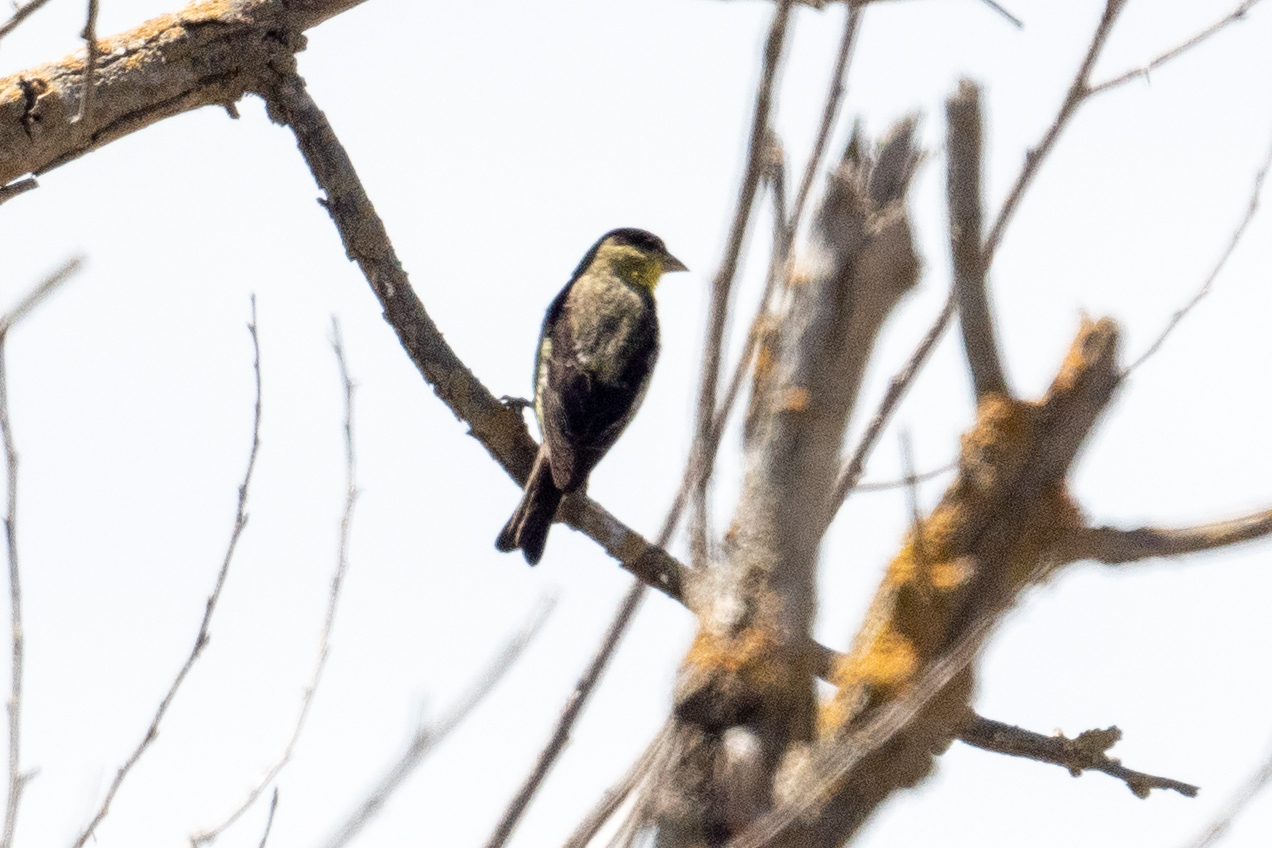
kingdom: Animalia
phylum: Chordata
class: Aves
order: Passeriformes
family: Fringillidae
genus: Spinus
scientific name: Spinus psaltria
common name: Lesser goldfinch
